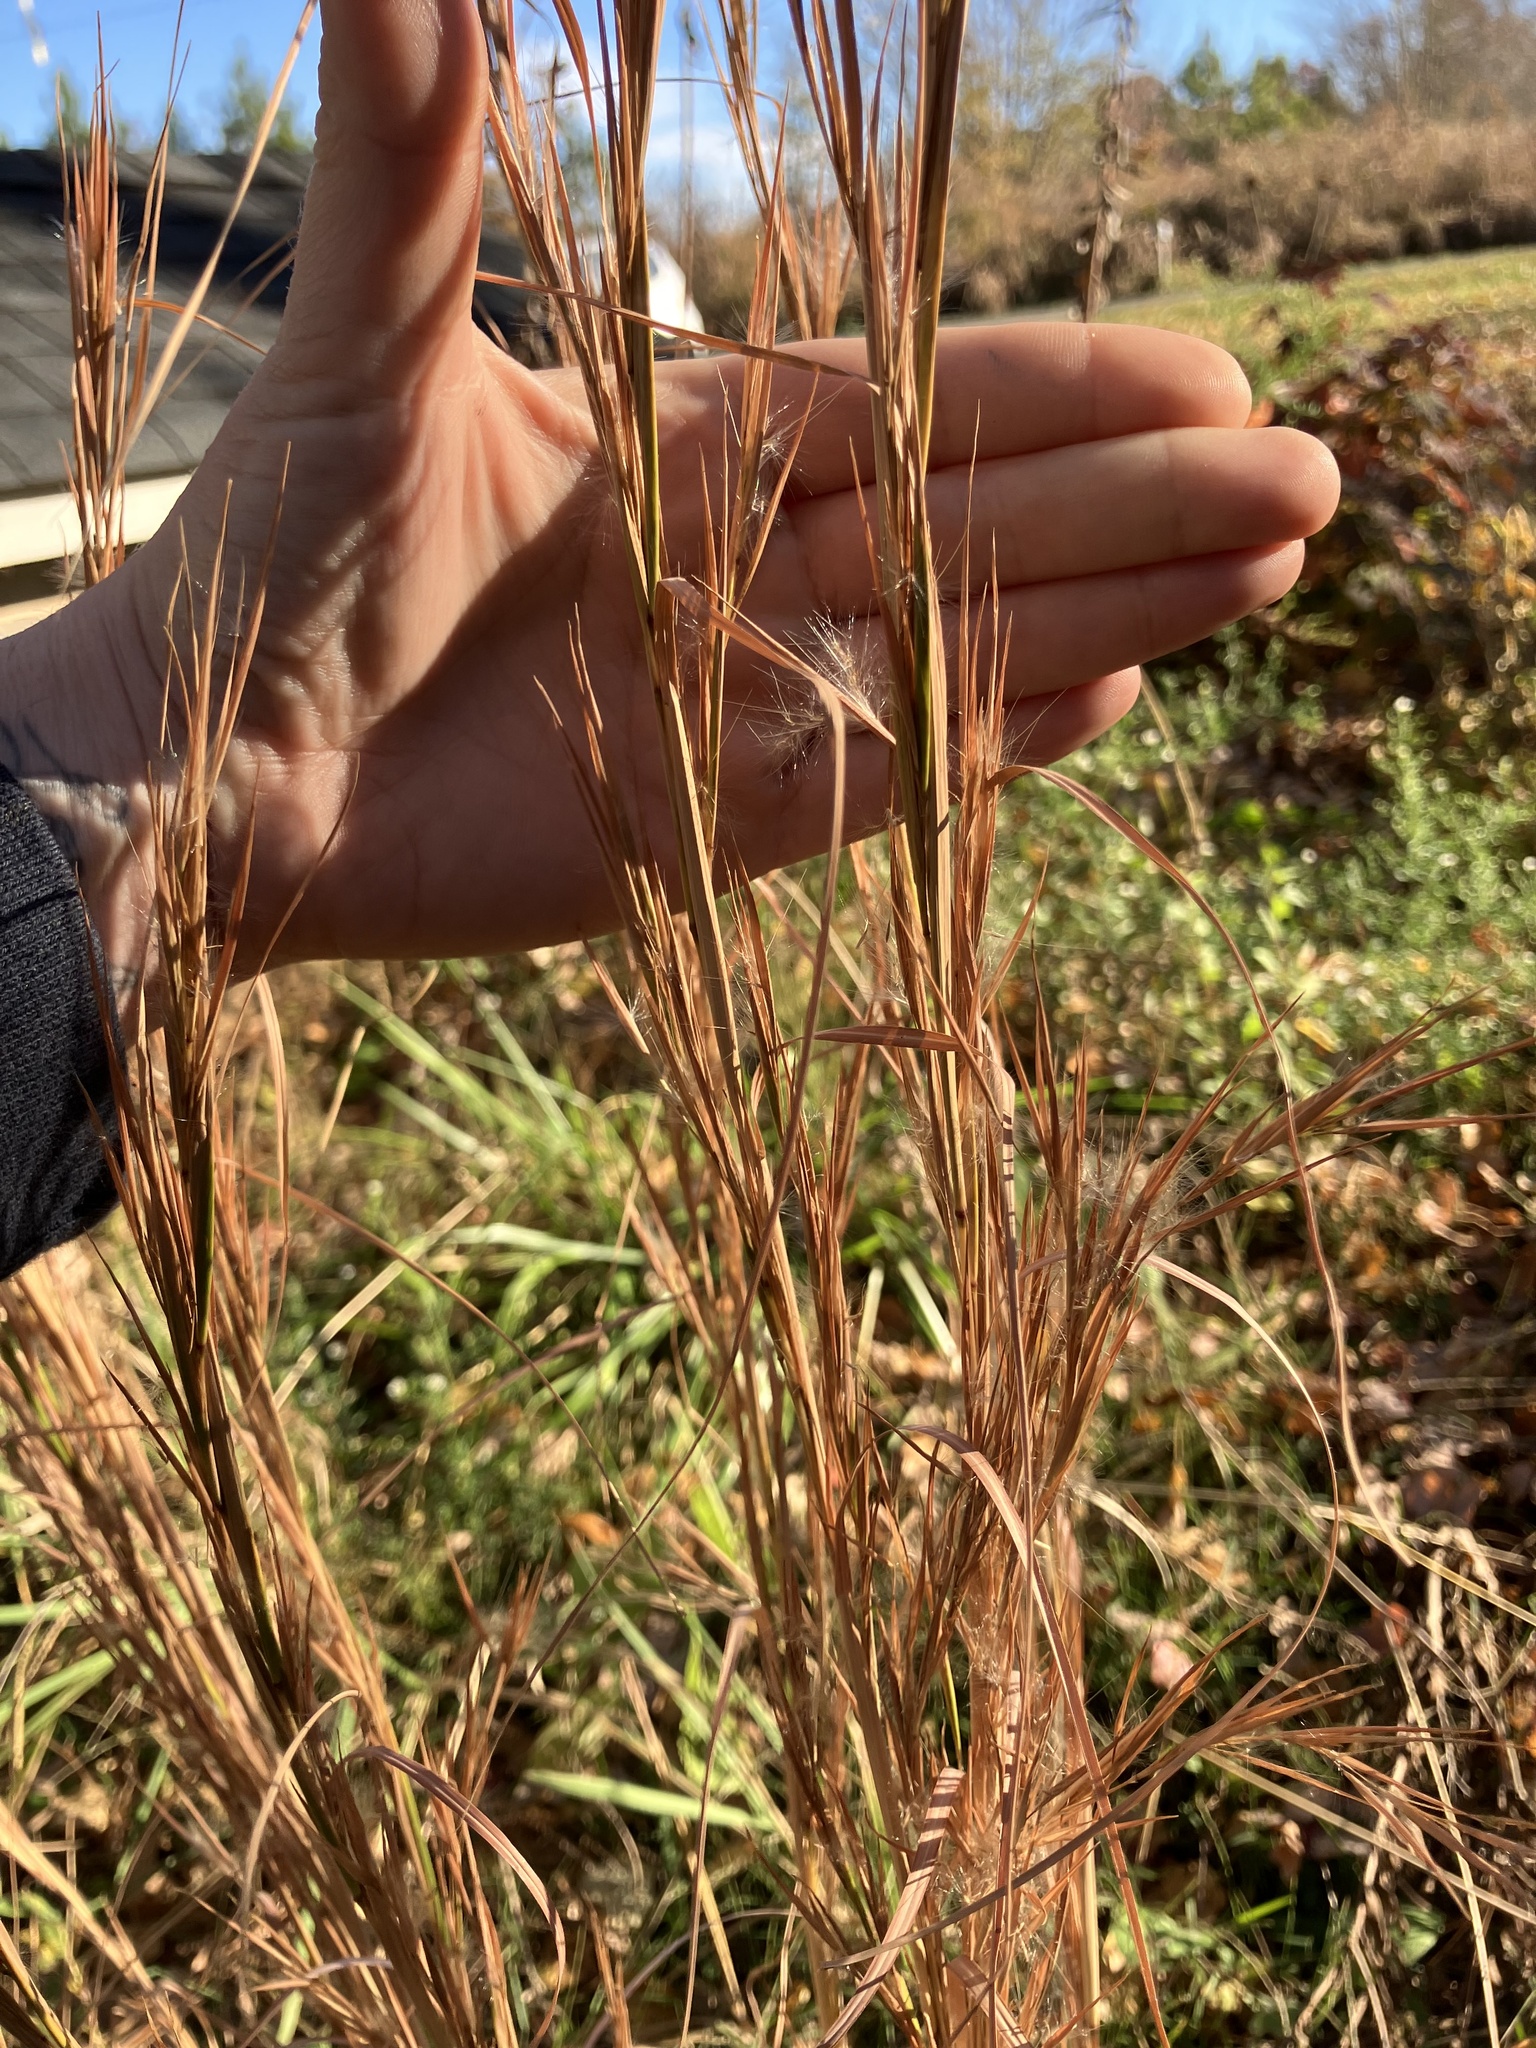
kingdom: Plantae
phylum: Tracheophyta
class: Liliopsida
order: Poales
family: Poaceae
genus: Andropogon
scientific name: Andropogon virginicus
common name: Broomsedge bluestem
